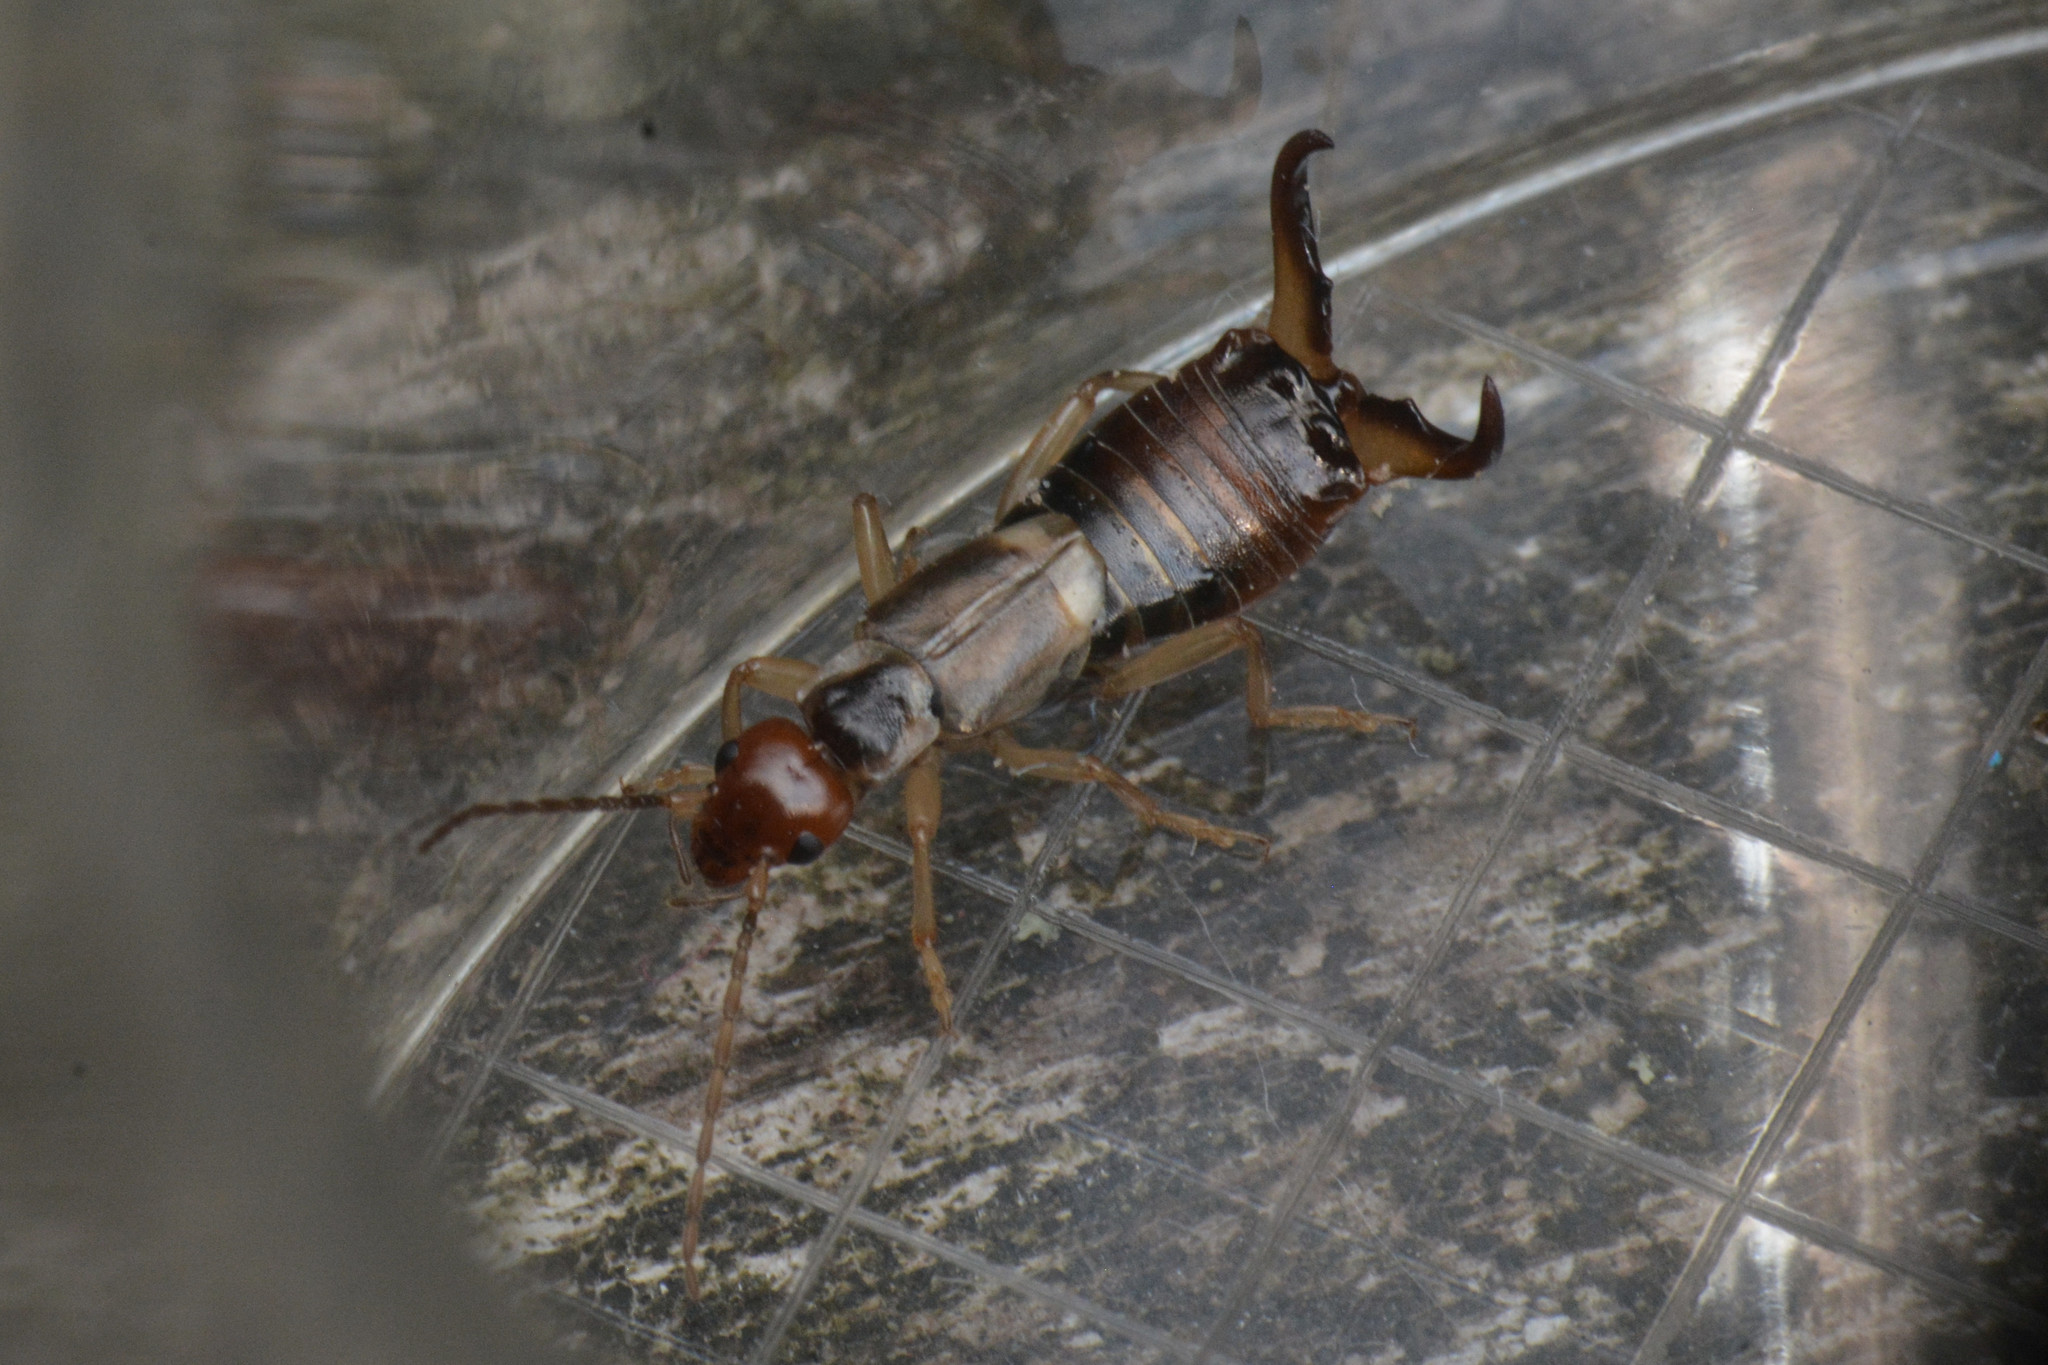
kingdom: Animalia
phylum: Arthropoda
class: Insecta
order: Dermaptera
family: Forficulidae
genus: Forficula
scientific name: Forficula
